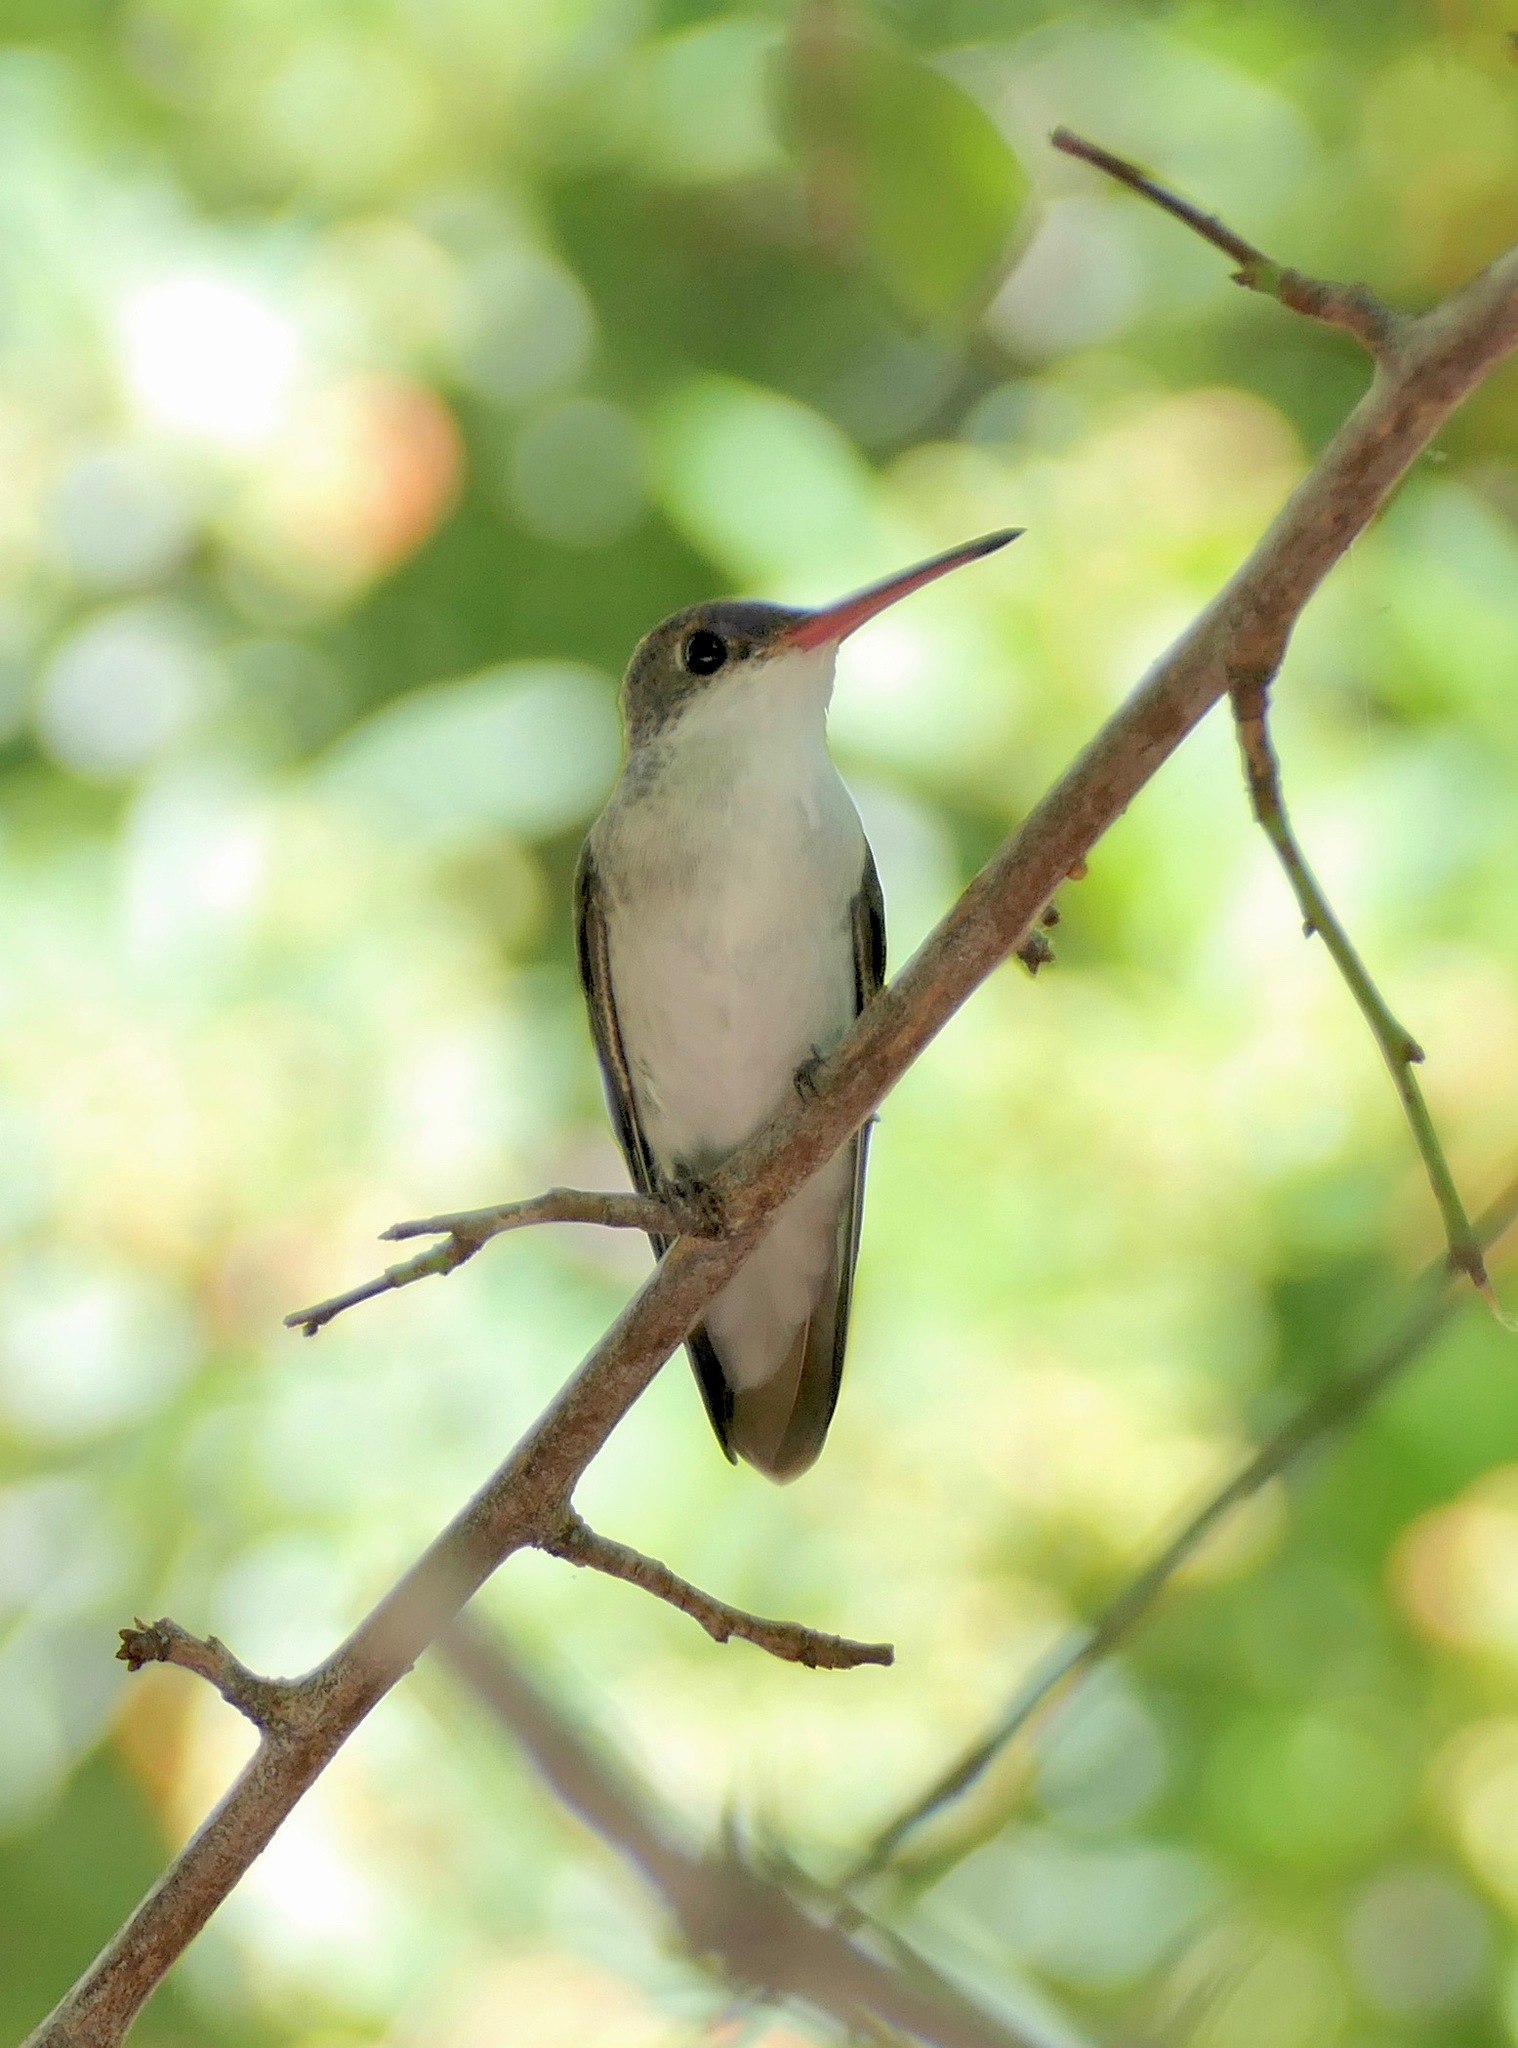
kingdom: Animalia
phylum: Chordata
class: Aves
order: Apodiformes
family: Trochilidae
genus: Leucolia
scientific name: Leucolia violiceps
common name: Violet-crowned hummingbird
